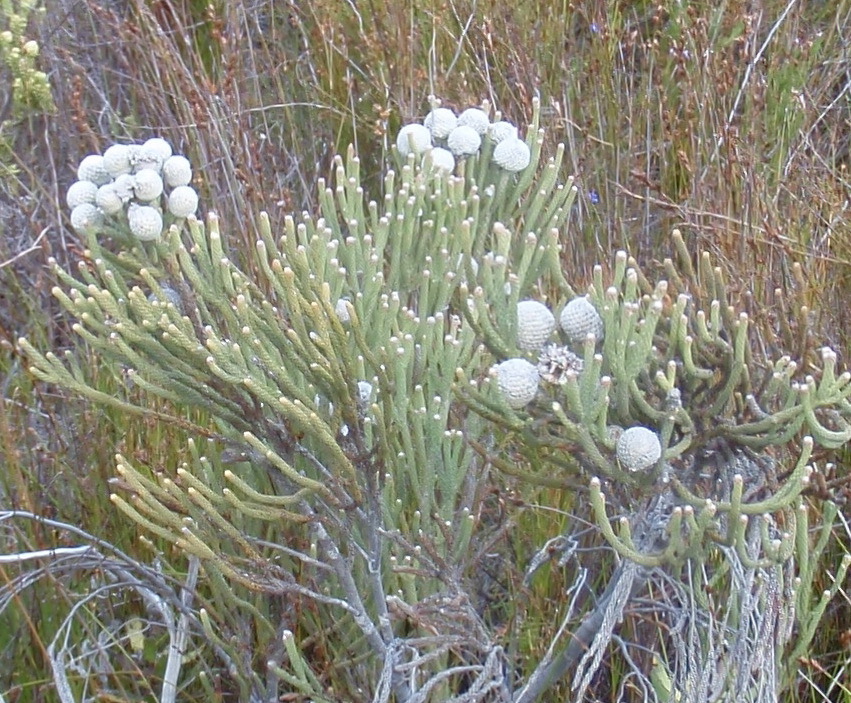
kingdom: Plantae
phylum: Tracheophyta
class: Magnoliopsida
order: Bruniales
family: Bruniaceae
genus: Brunia
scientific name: Brunia laevis
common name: Silver brunia
